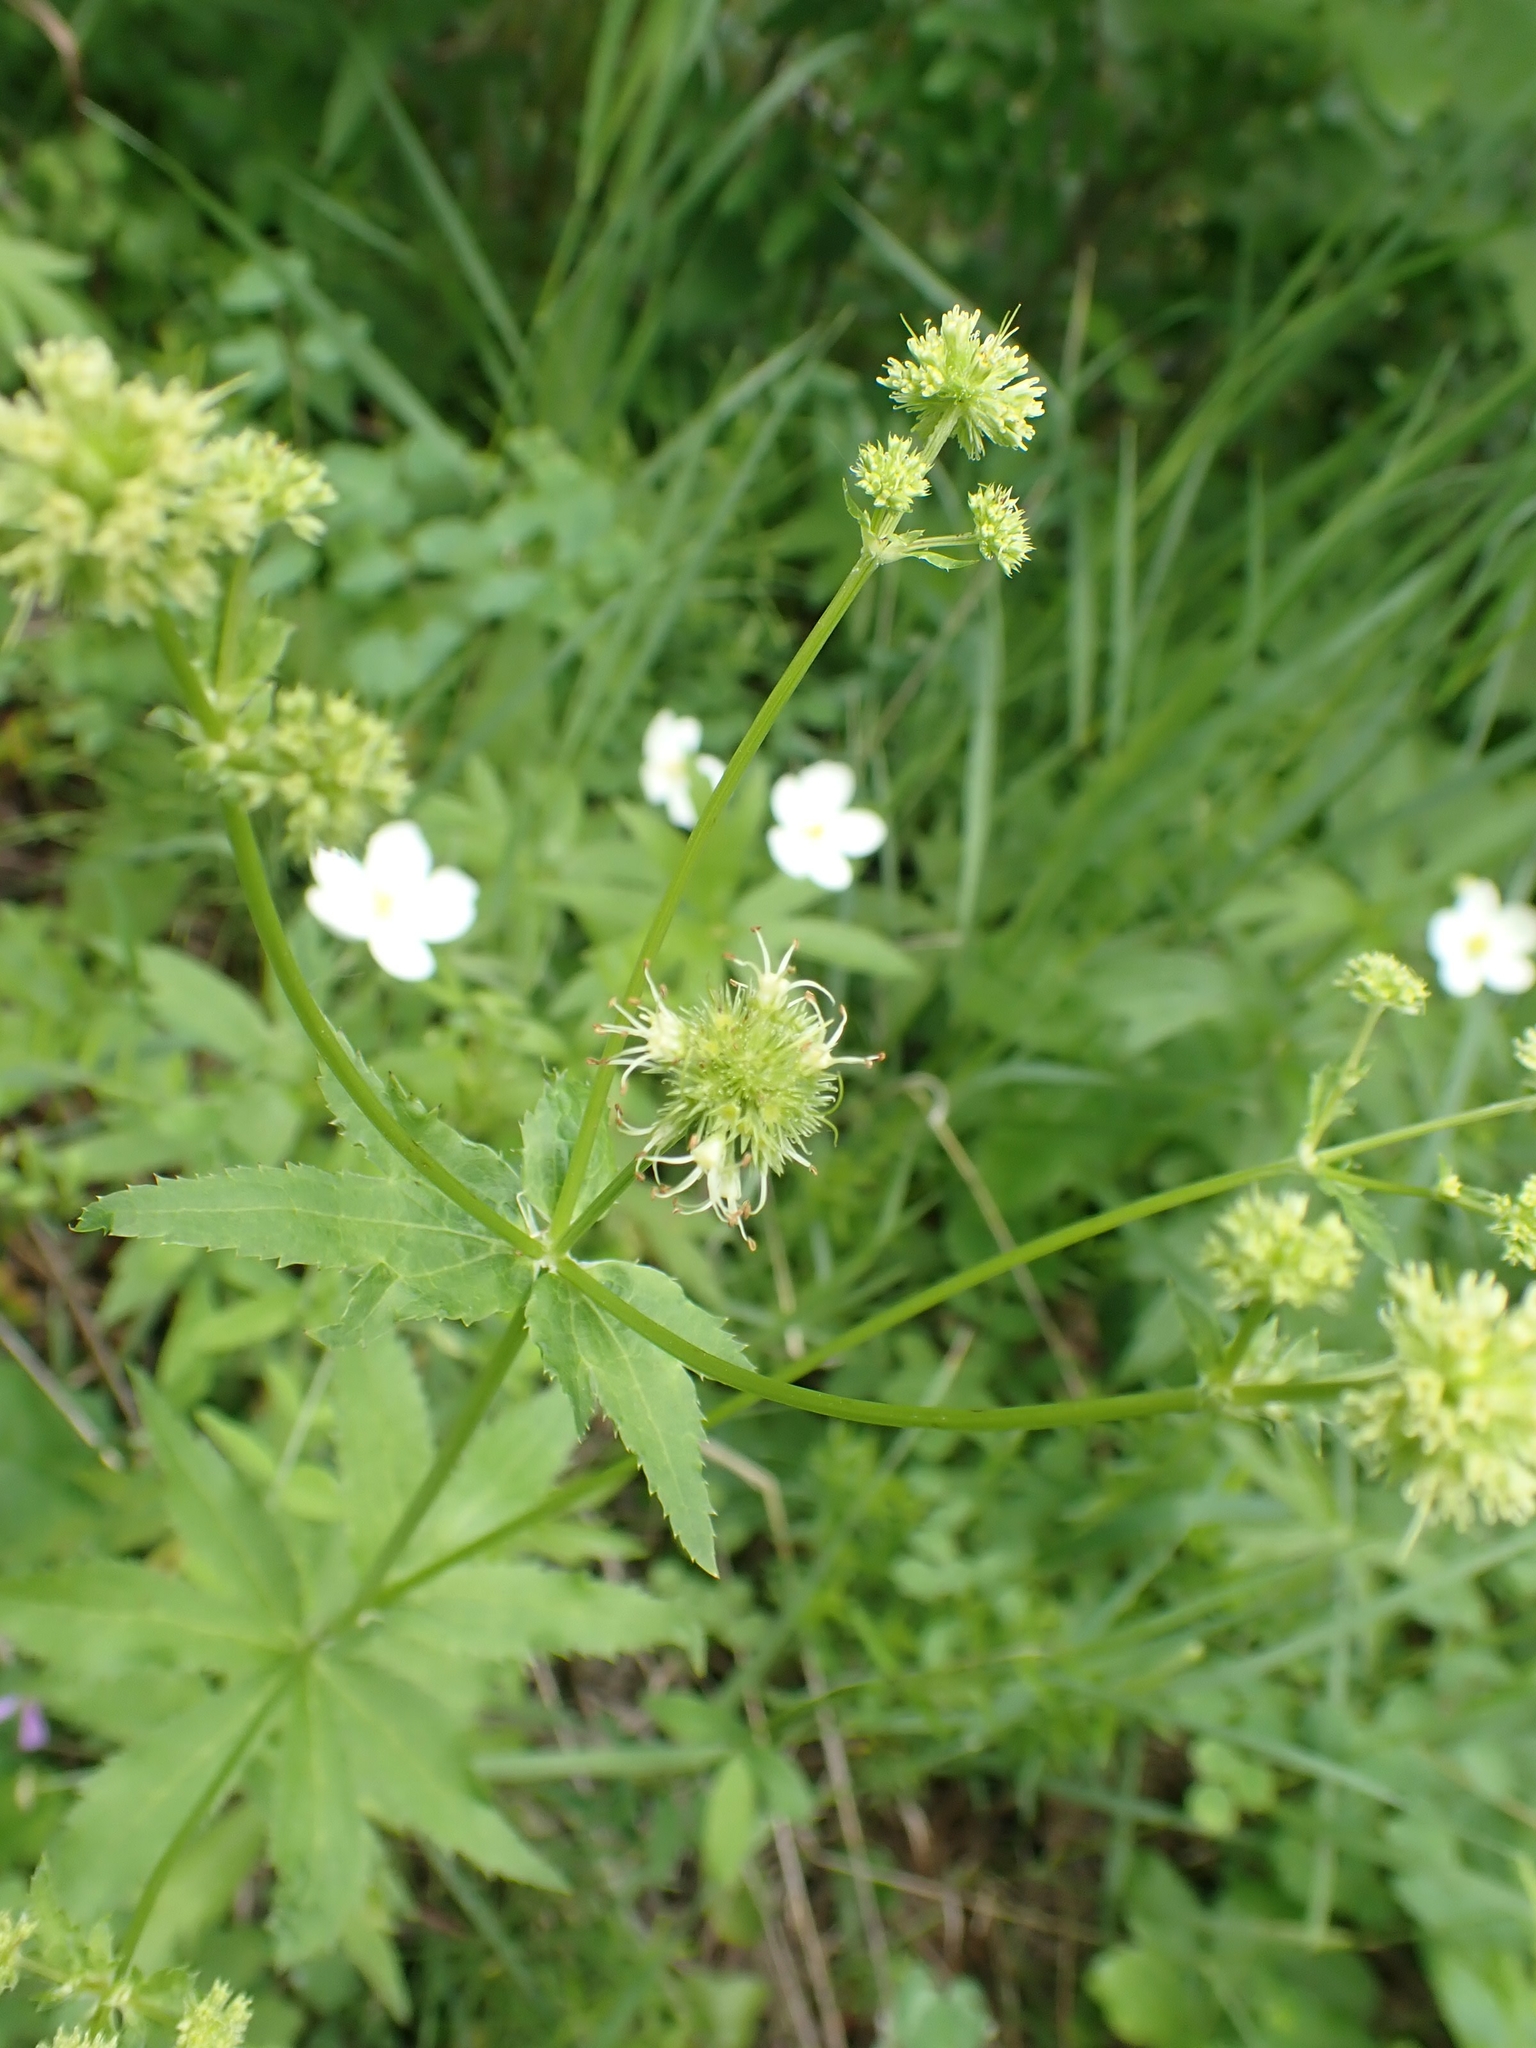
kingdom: Plantae
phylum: Tracheophyta
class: Magnoliopsida
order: Apiales
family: Apiaceae
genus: Sanicula
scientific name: Sanicula marilandica
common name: Black snakeroot
